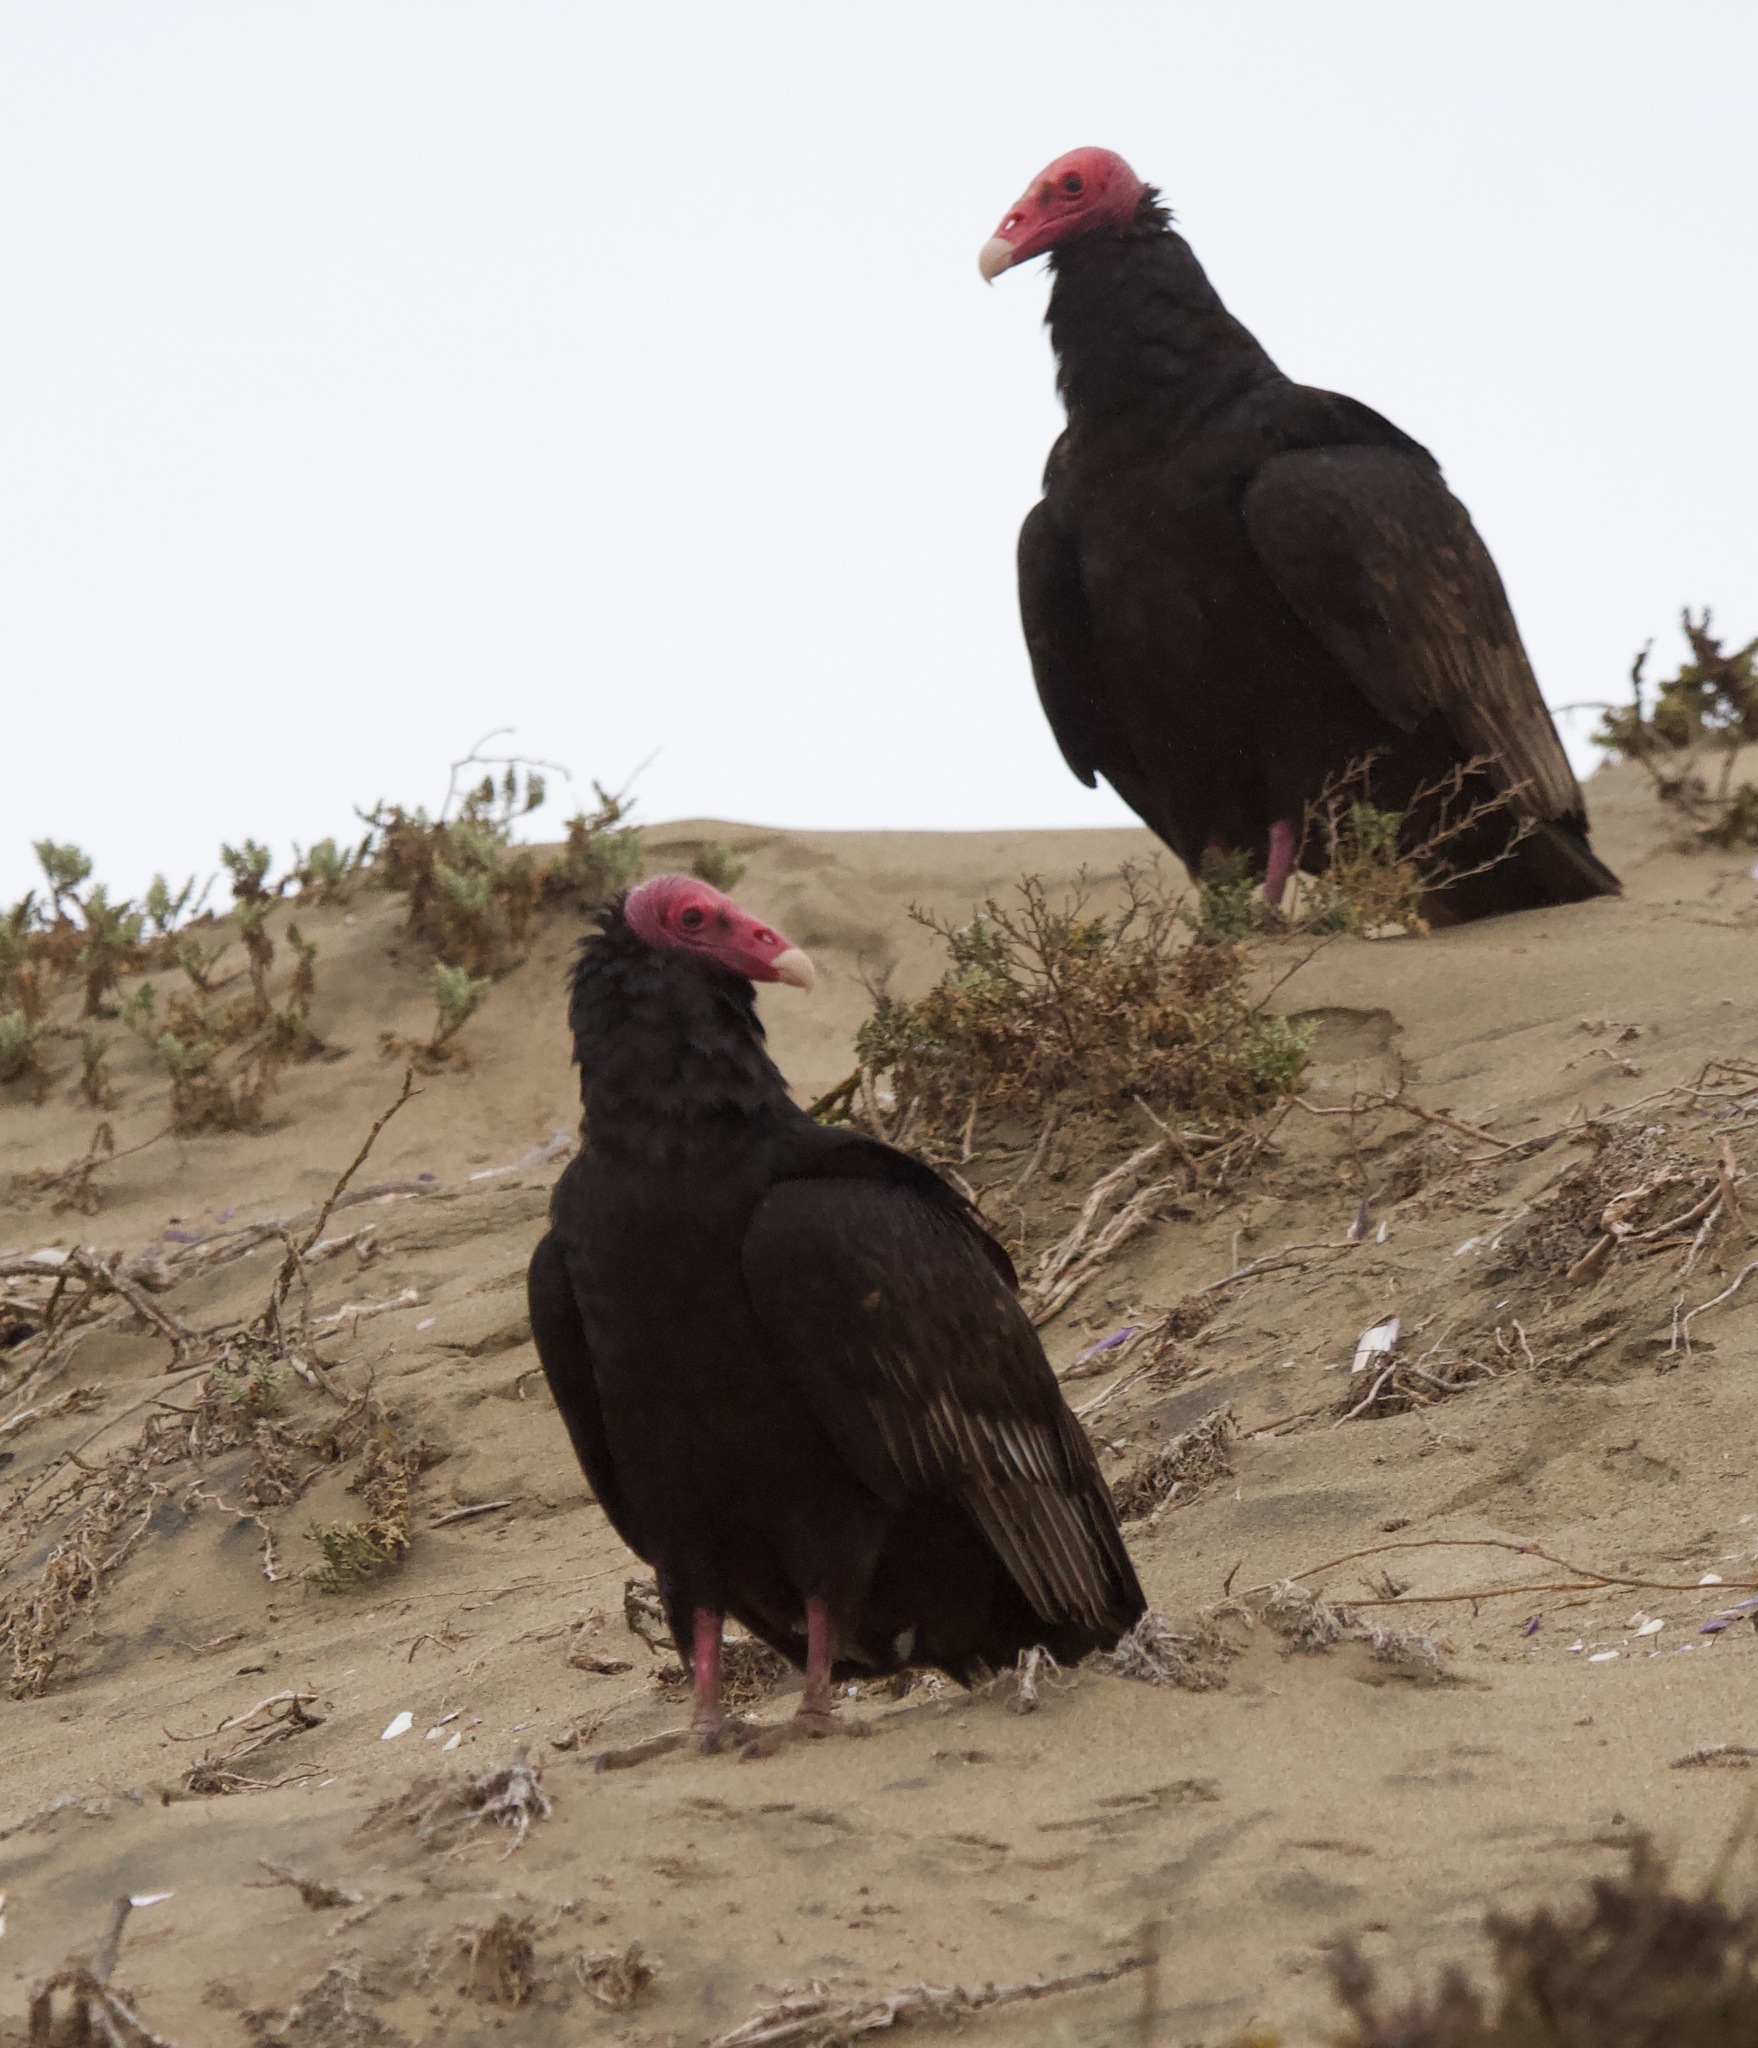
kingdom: Animalia
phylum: Chordata
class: Aves
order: Accipitriformes
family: Cathartidae
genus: Cathartes
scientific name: Cathartes aura
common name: Turkey vulture
